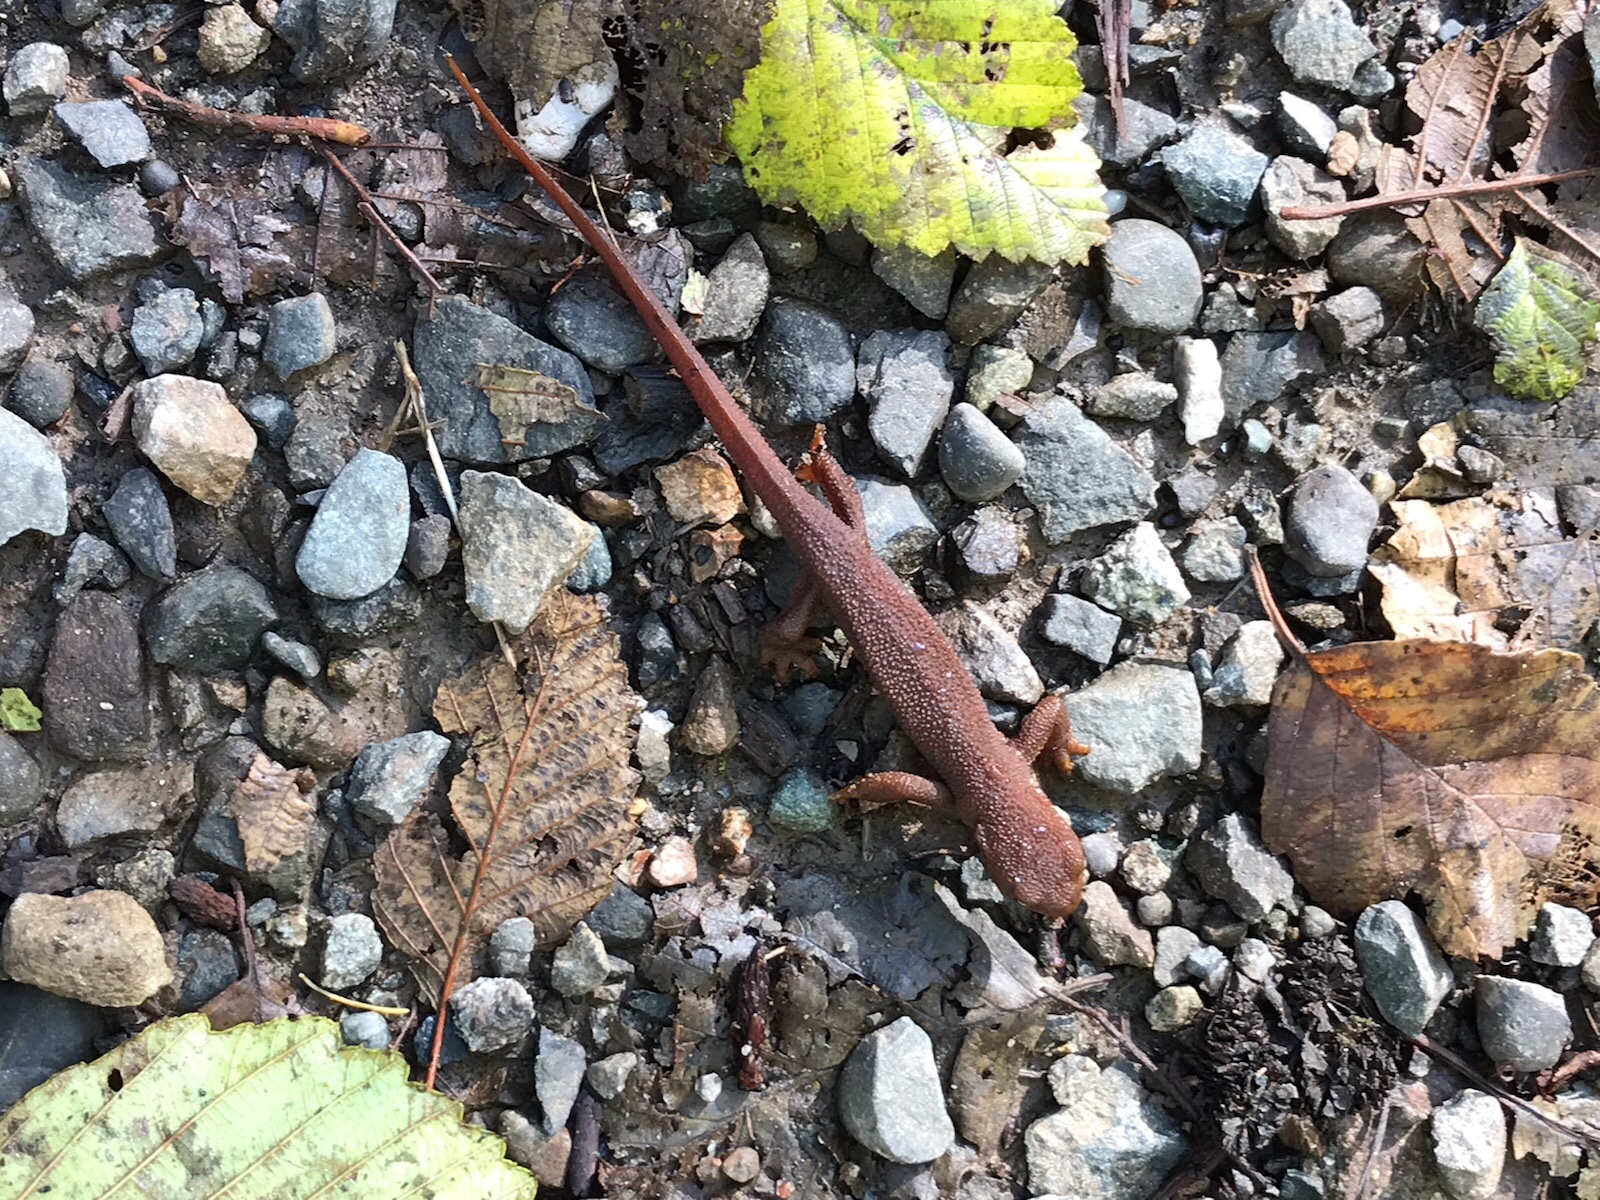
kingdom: Animalia
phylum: Chordata
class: Amphibia
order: Caudata
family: Salamandridae
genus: Taricha
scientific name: Taricha granulosa
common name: Roughskin newt
